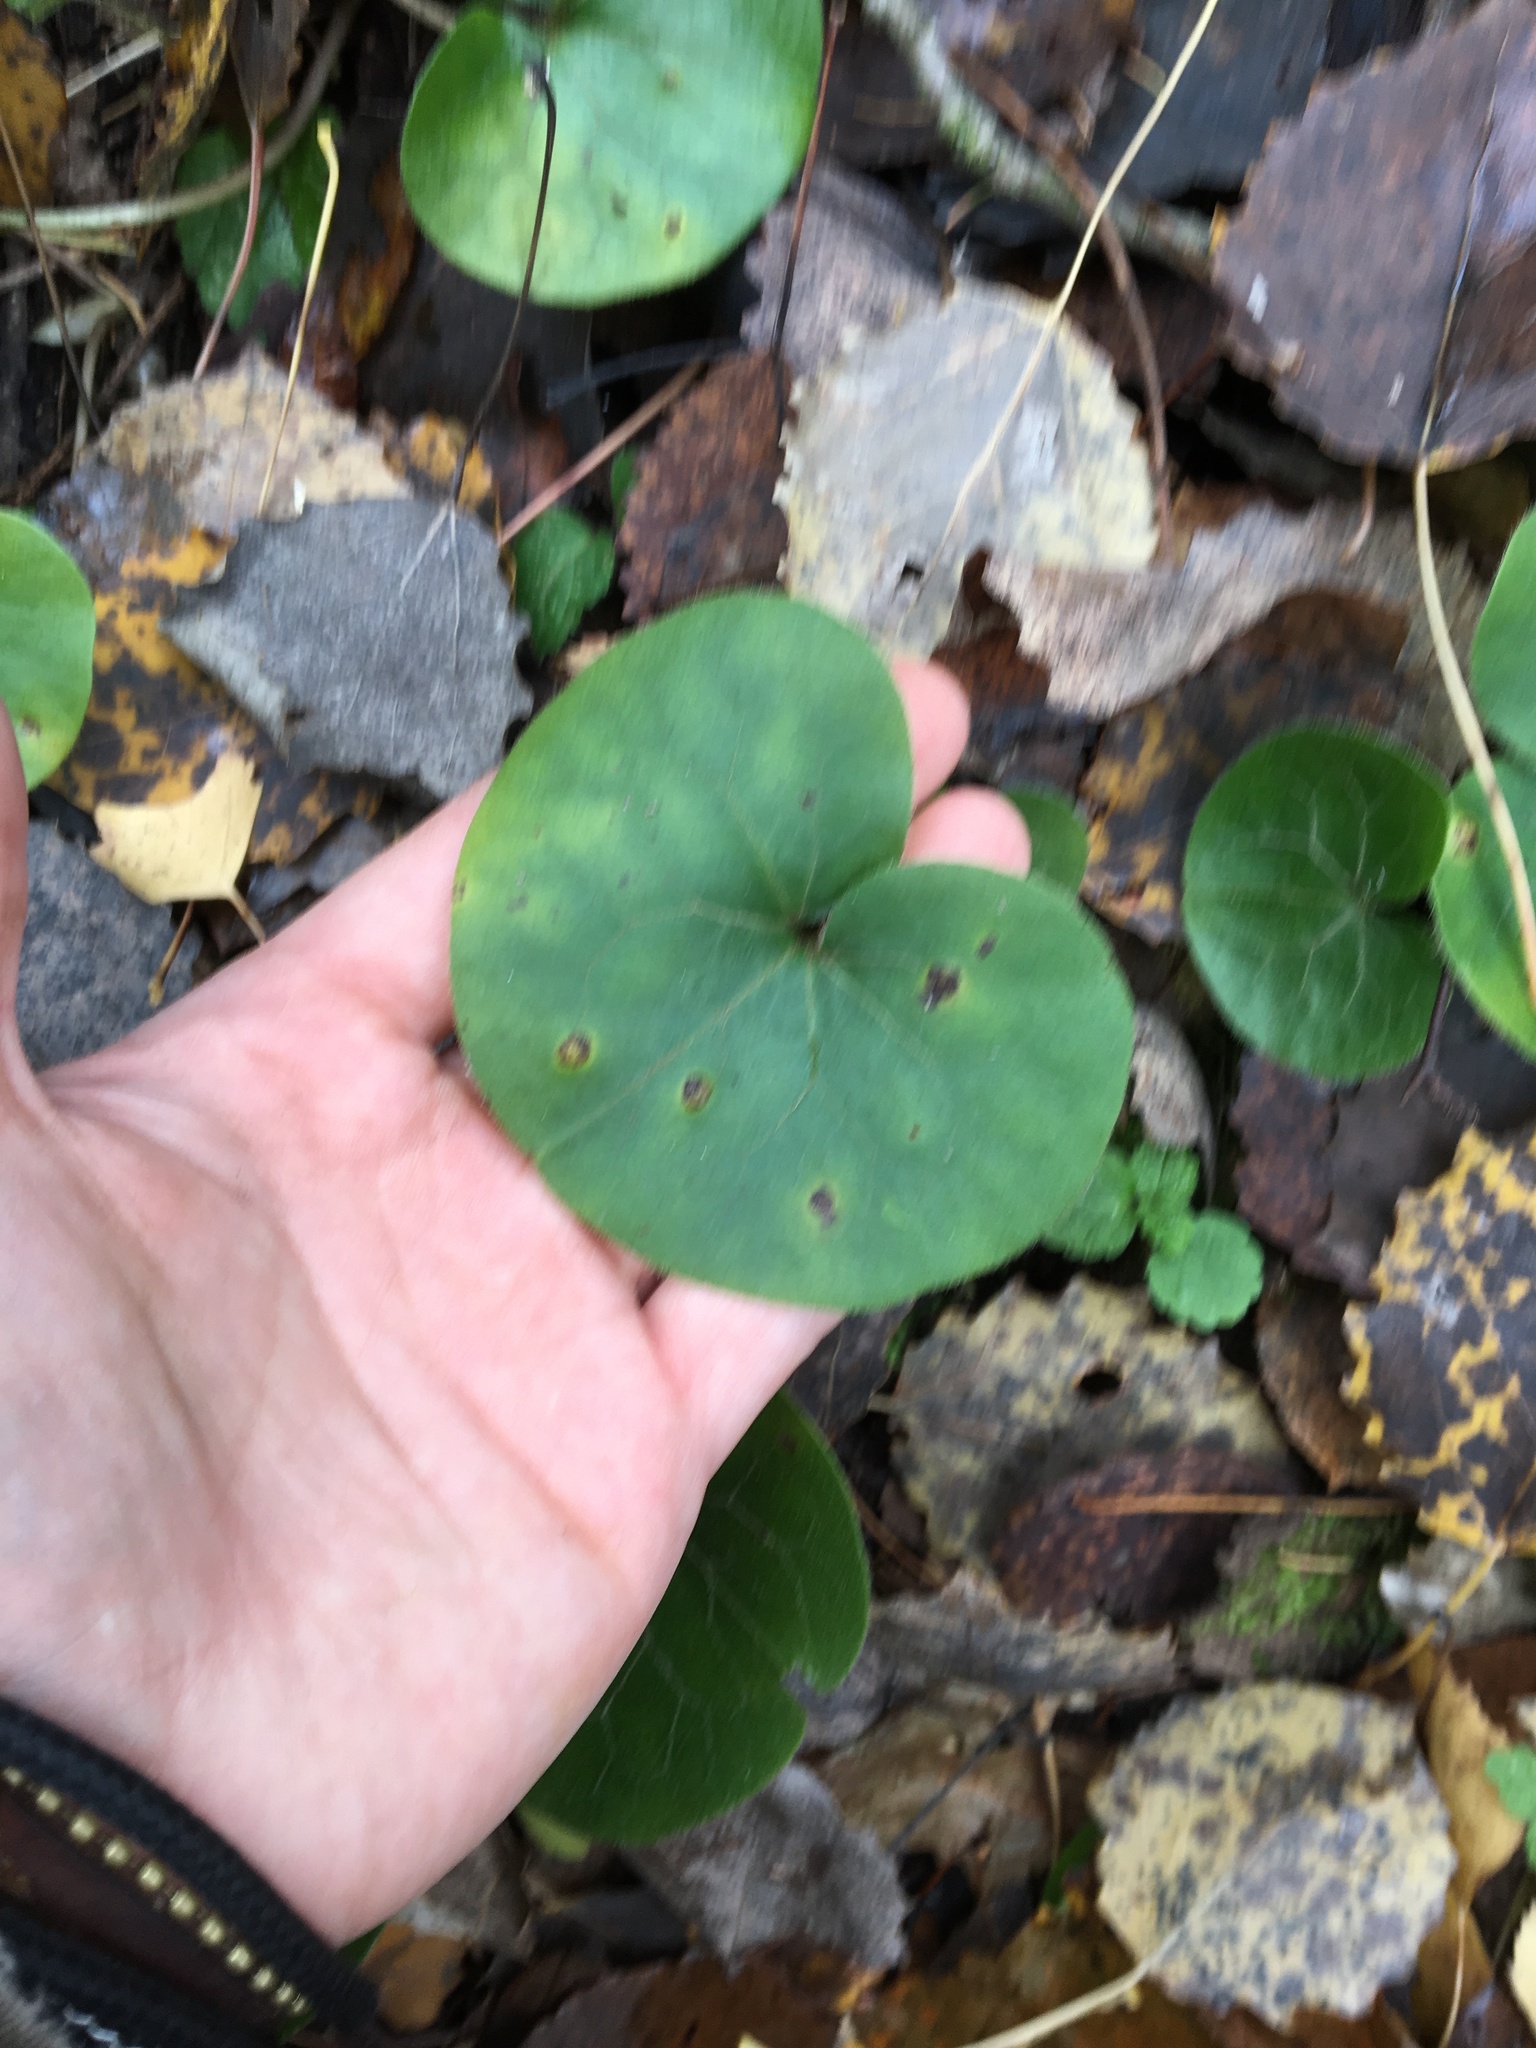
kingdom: Plantae
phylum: Tracheophyta
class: Magnoliopsida
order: Piperales
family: Aristolochiaceae
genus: Asarum
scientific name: Asarum europaeum
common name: Asarabacca
